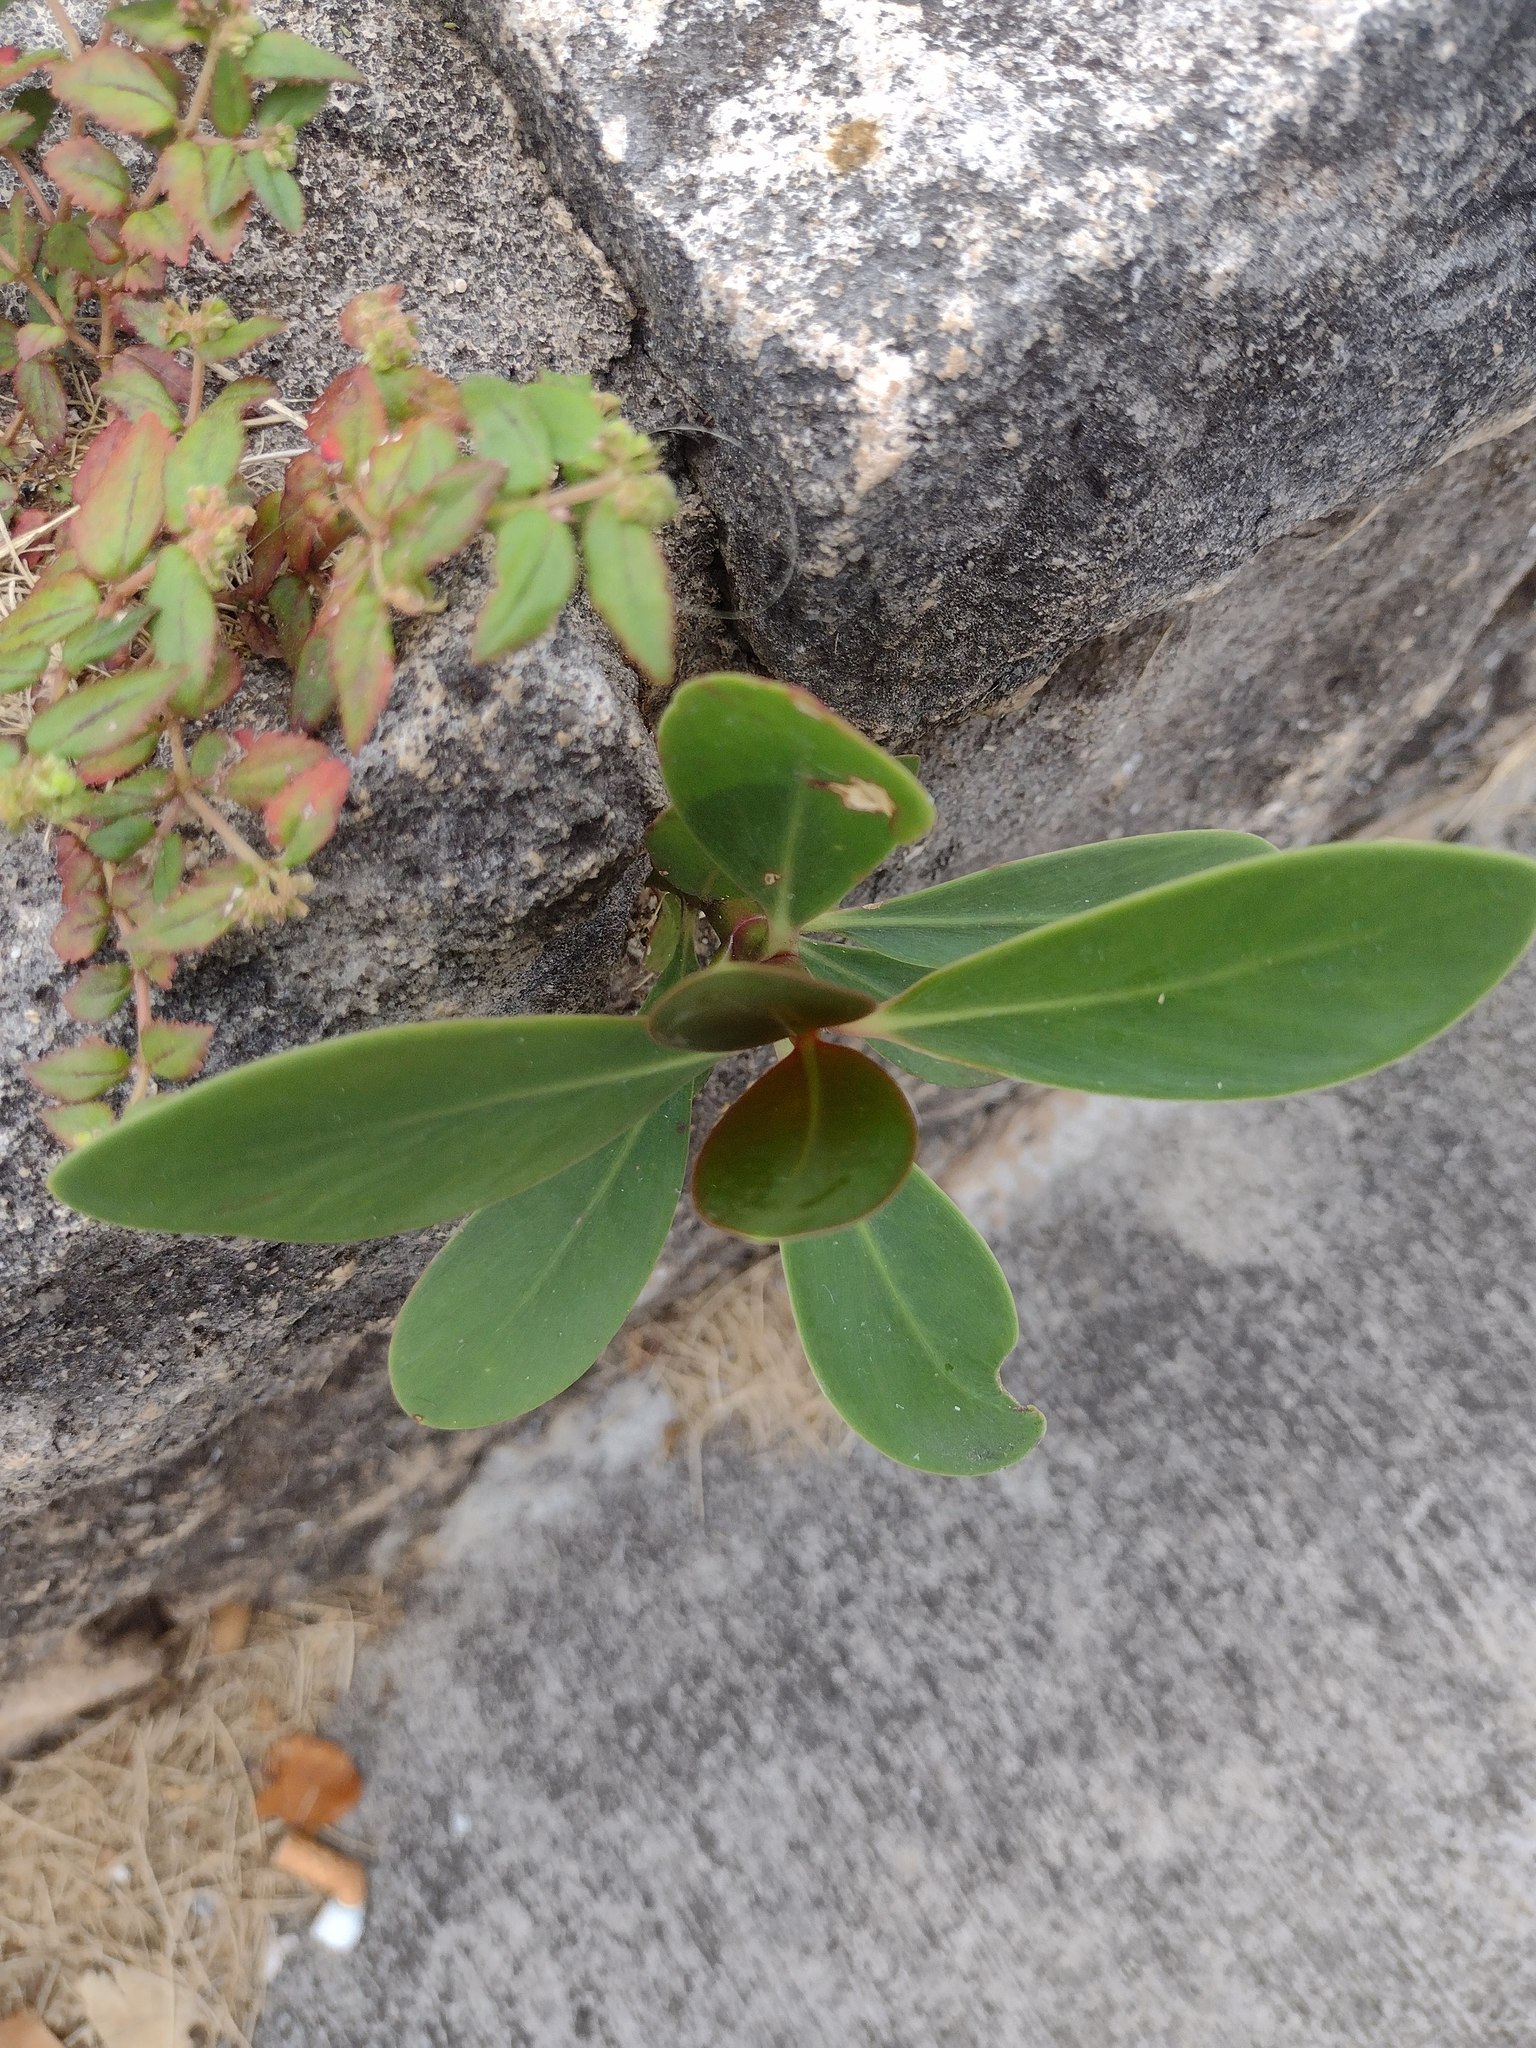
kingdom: Plantae
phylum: Tracheophyta
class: Magnoliopsida
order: Malpighiales
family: Clusiaceae
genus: Clusia
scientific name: Clusia rosea
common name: Scotch attorney
